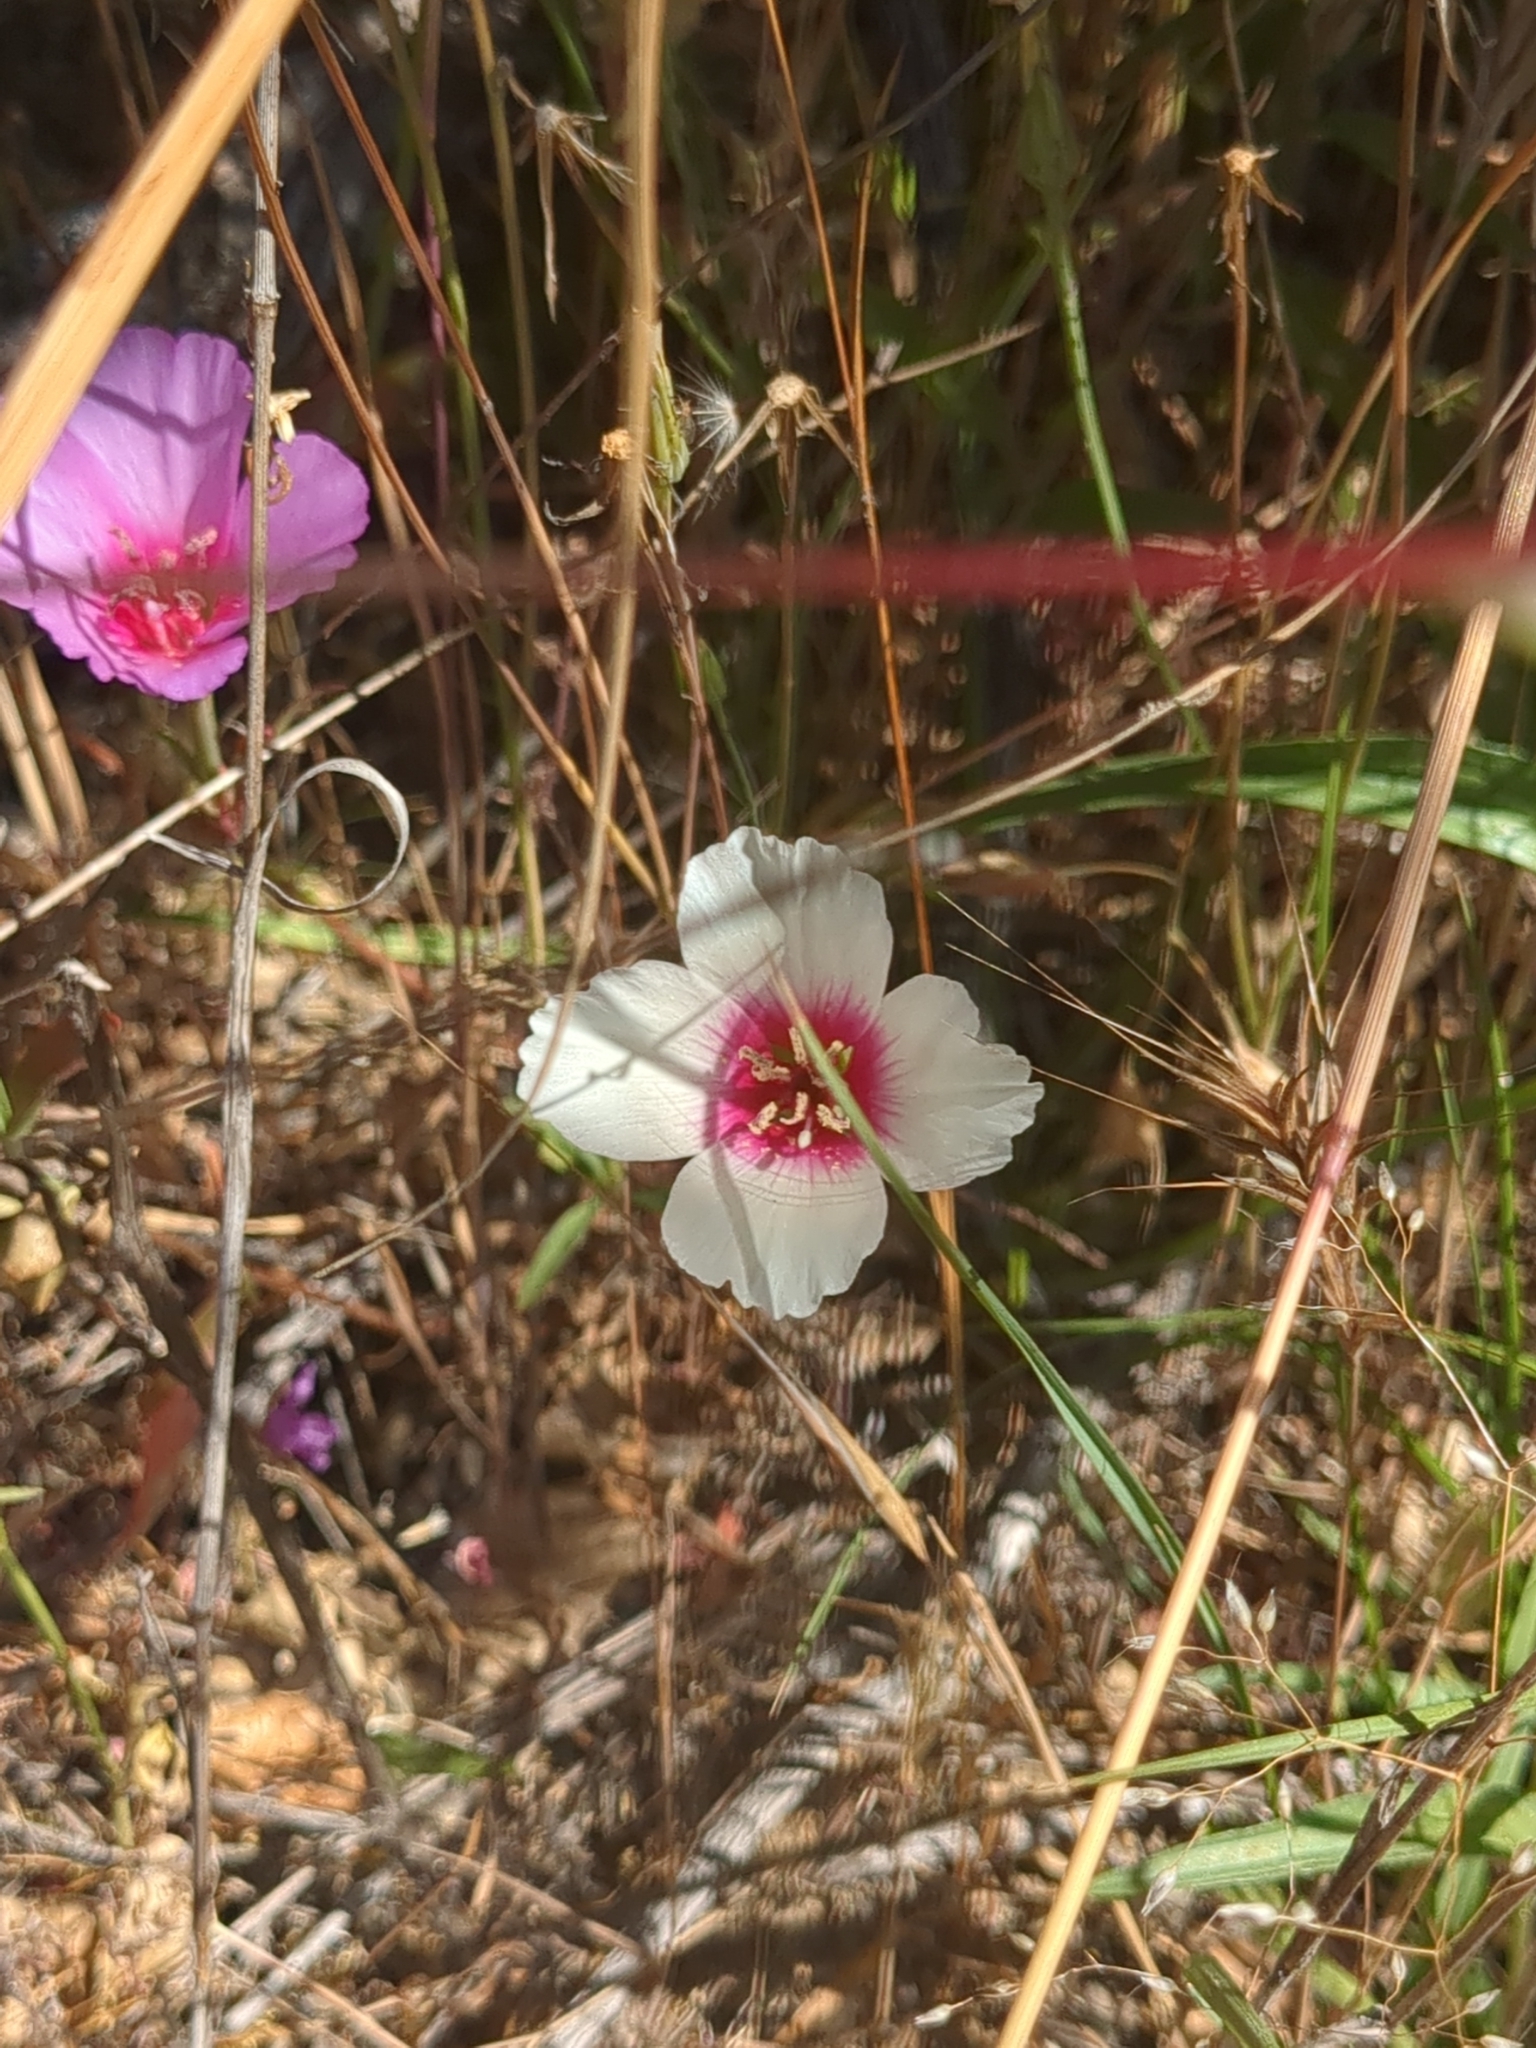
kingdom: Plantae
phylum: Tracheophyta
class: Magnoliopsida
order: Myrtales
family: Onagraceae
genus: Clarkia
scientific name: Clarkia rubicunda
